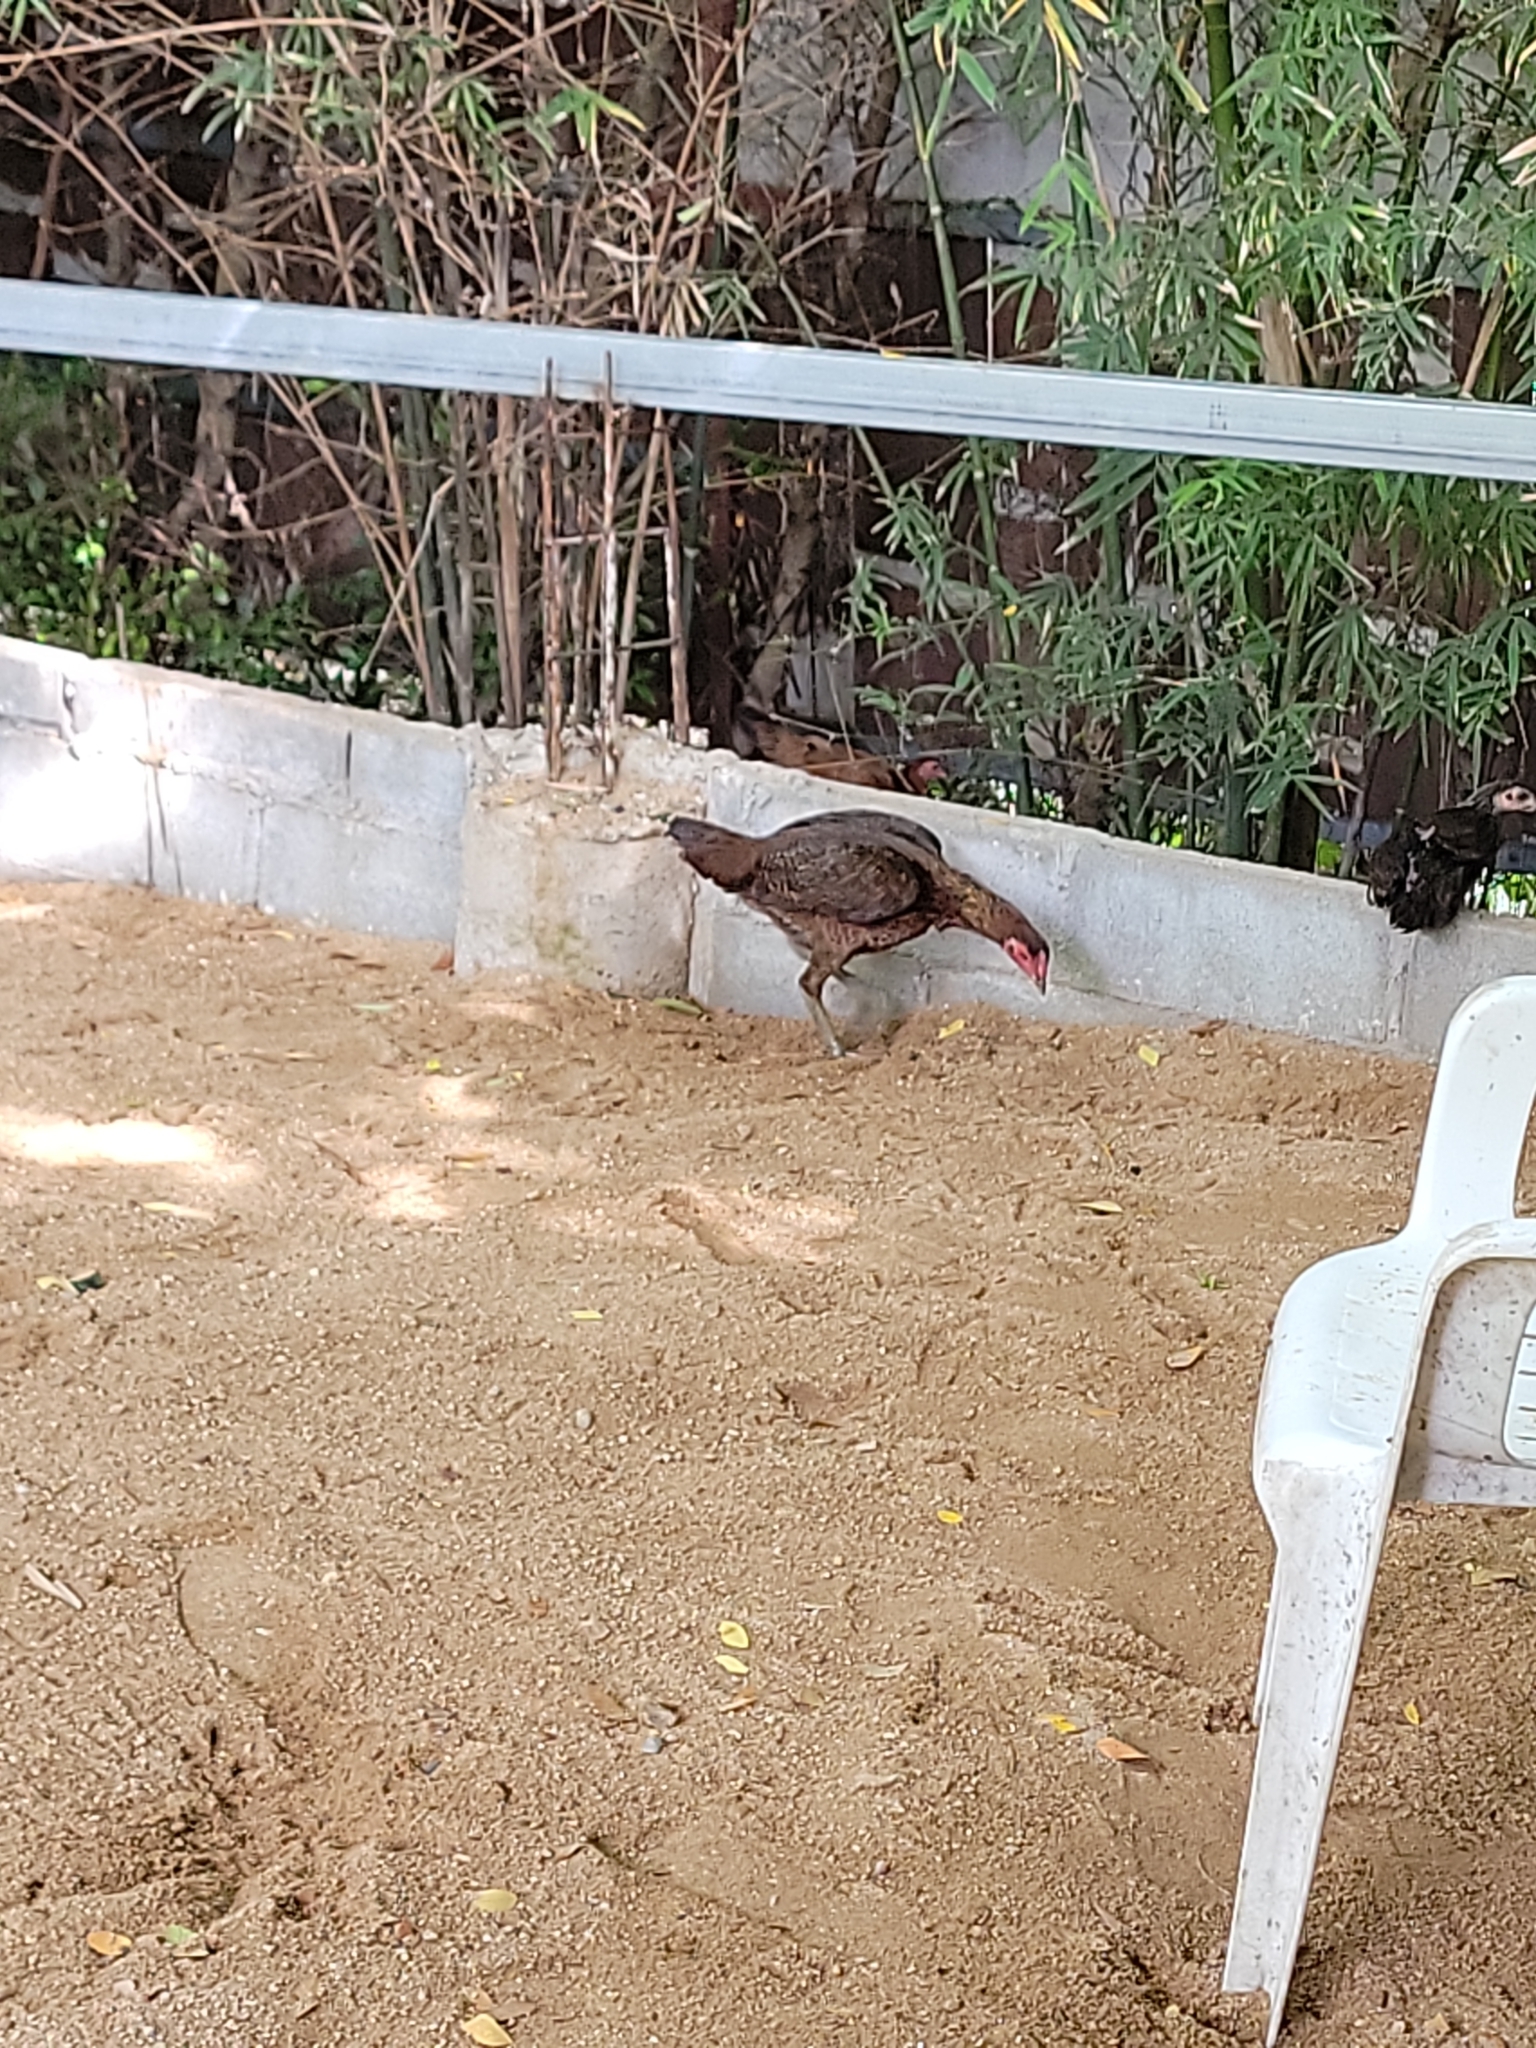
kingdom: Animalia
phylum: Chordata
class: Aves
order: Galliformes
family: Phasianidae
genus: Gallus
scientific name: Gallus gallus
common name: Red junglefowl
